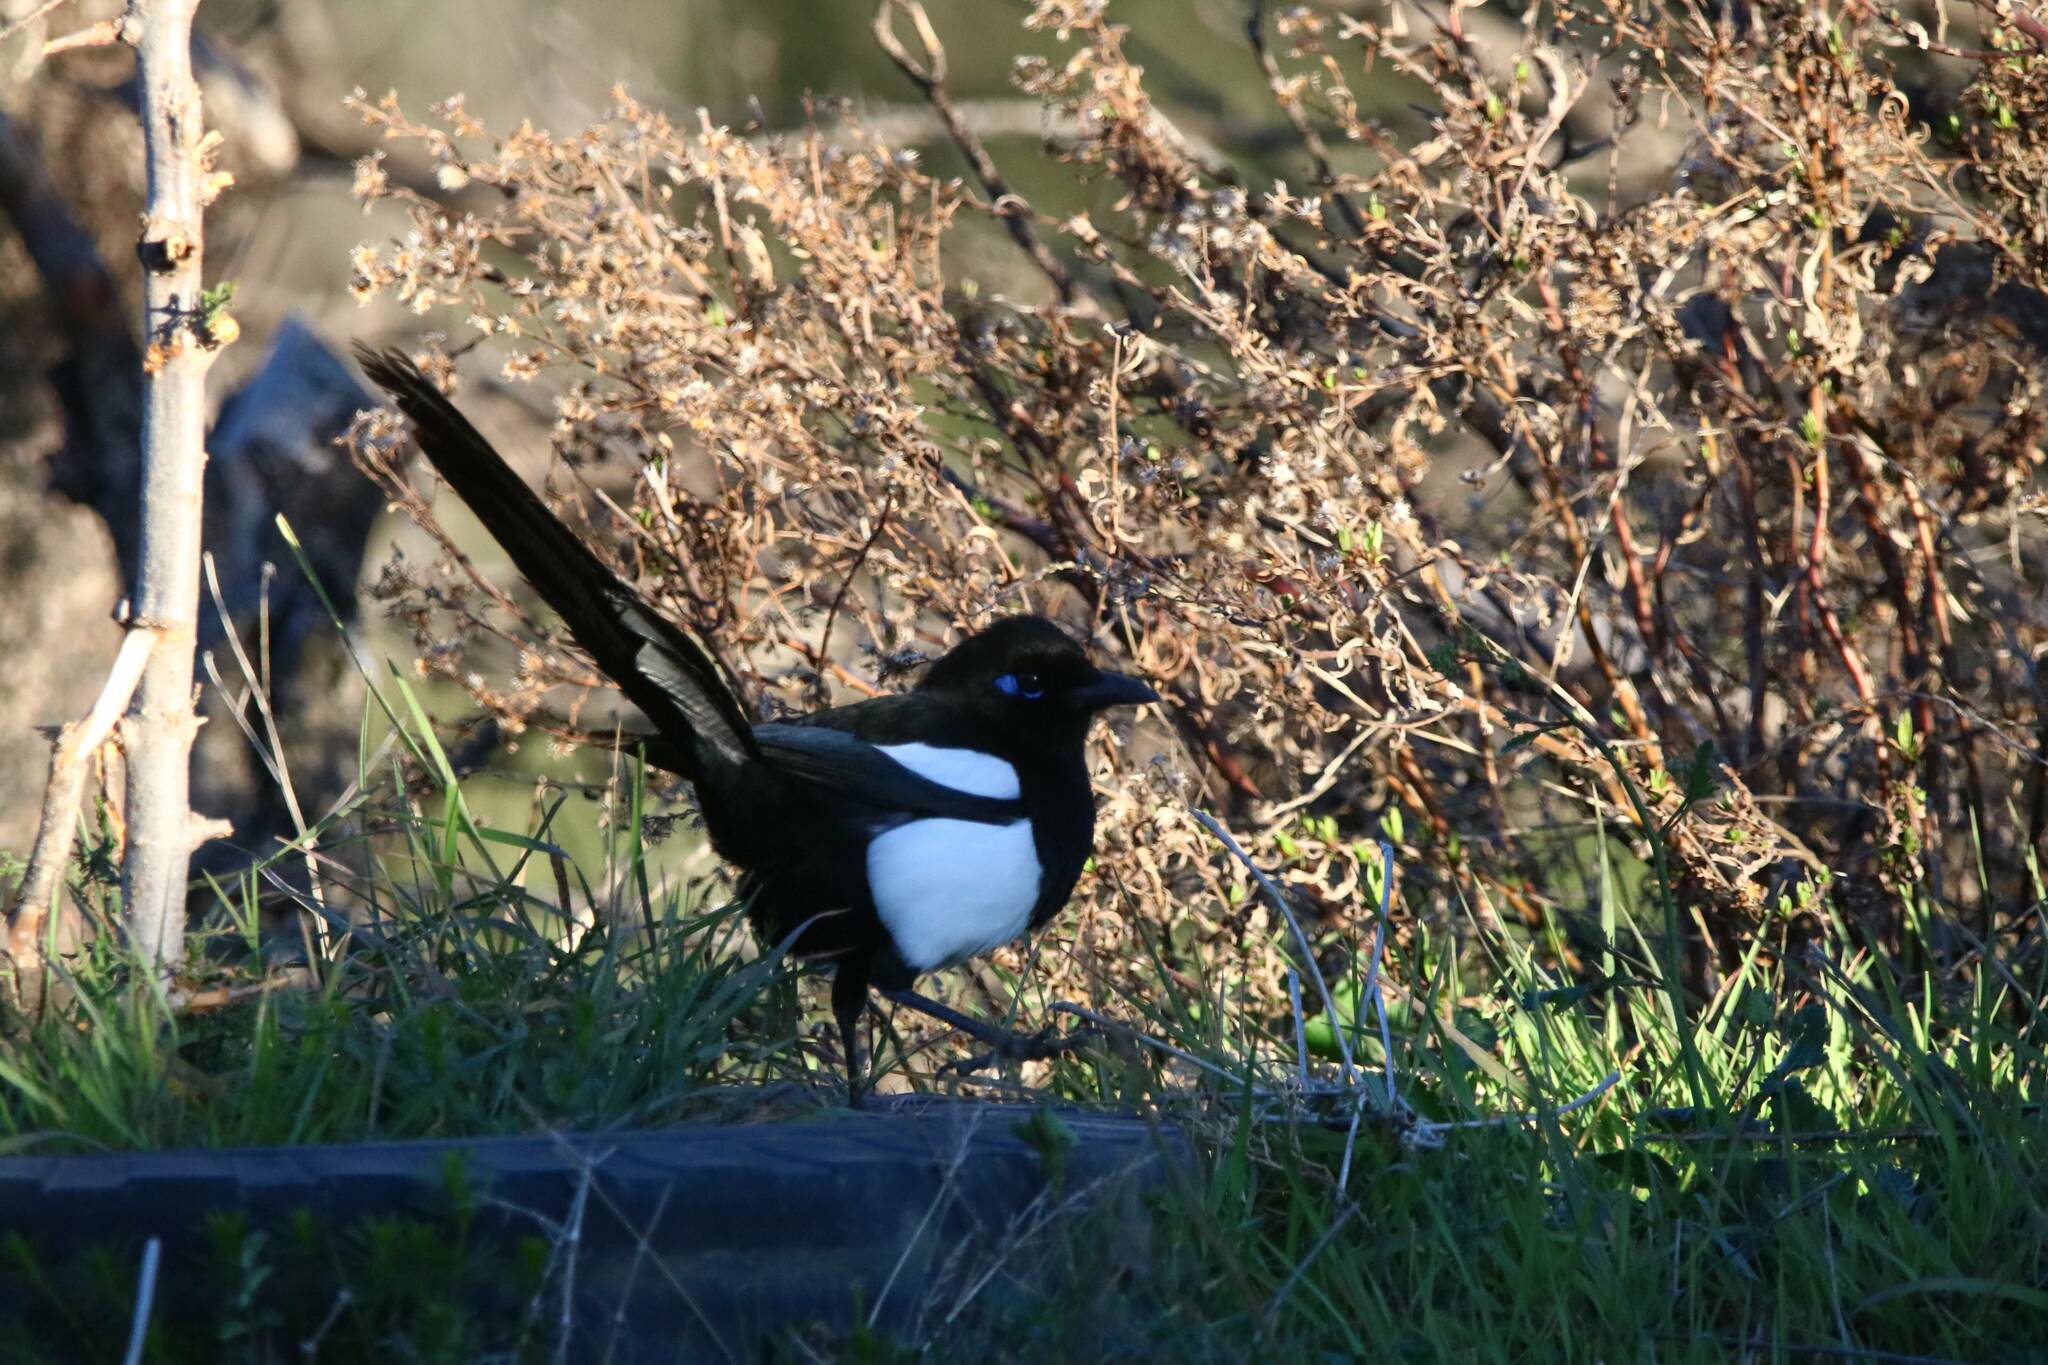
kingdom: Animalia
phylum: Chordata
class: Aves
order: Passeriformes
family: Corvidae
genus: Pica
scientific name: Pica mauritanica
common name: Maghreb magpie
